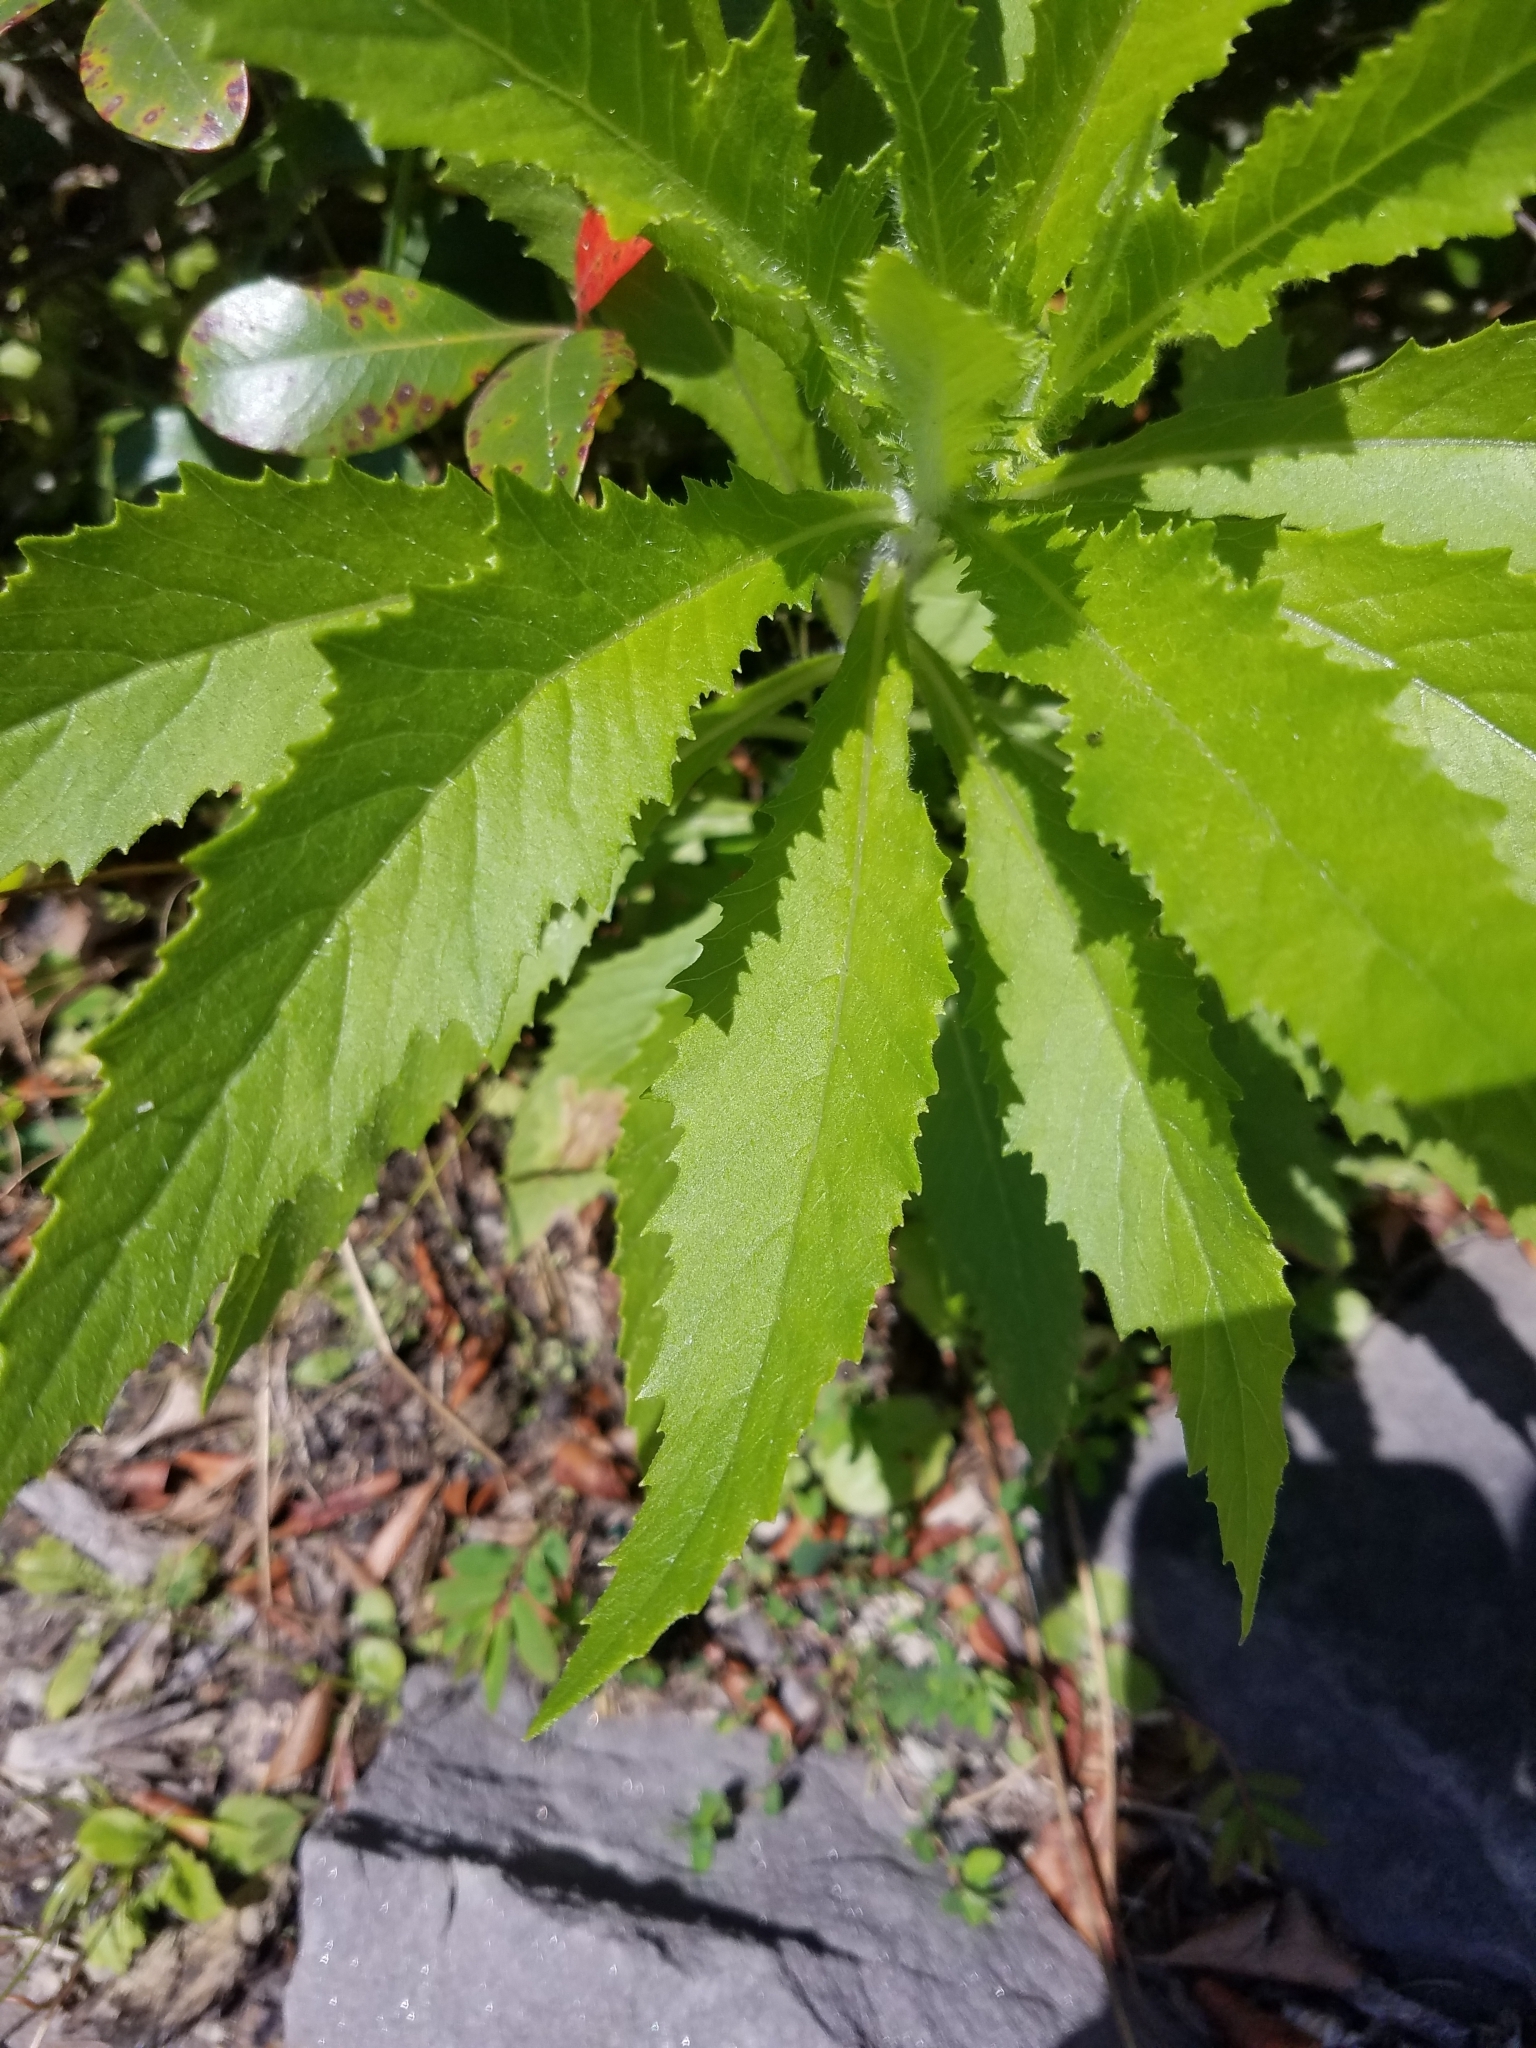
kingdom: Plantae
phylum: Tracheophyta
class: Magnoliopsida
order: Asterales
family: Asteraceae
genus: Erechtites
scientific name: Erechtites hieraciifolius
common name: American burnweed
